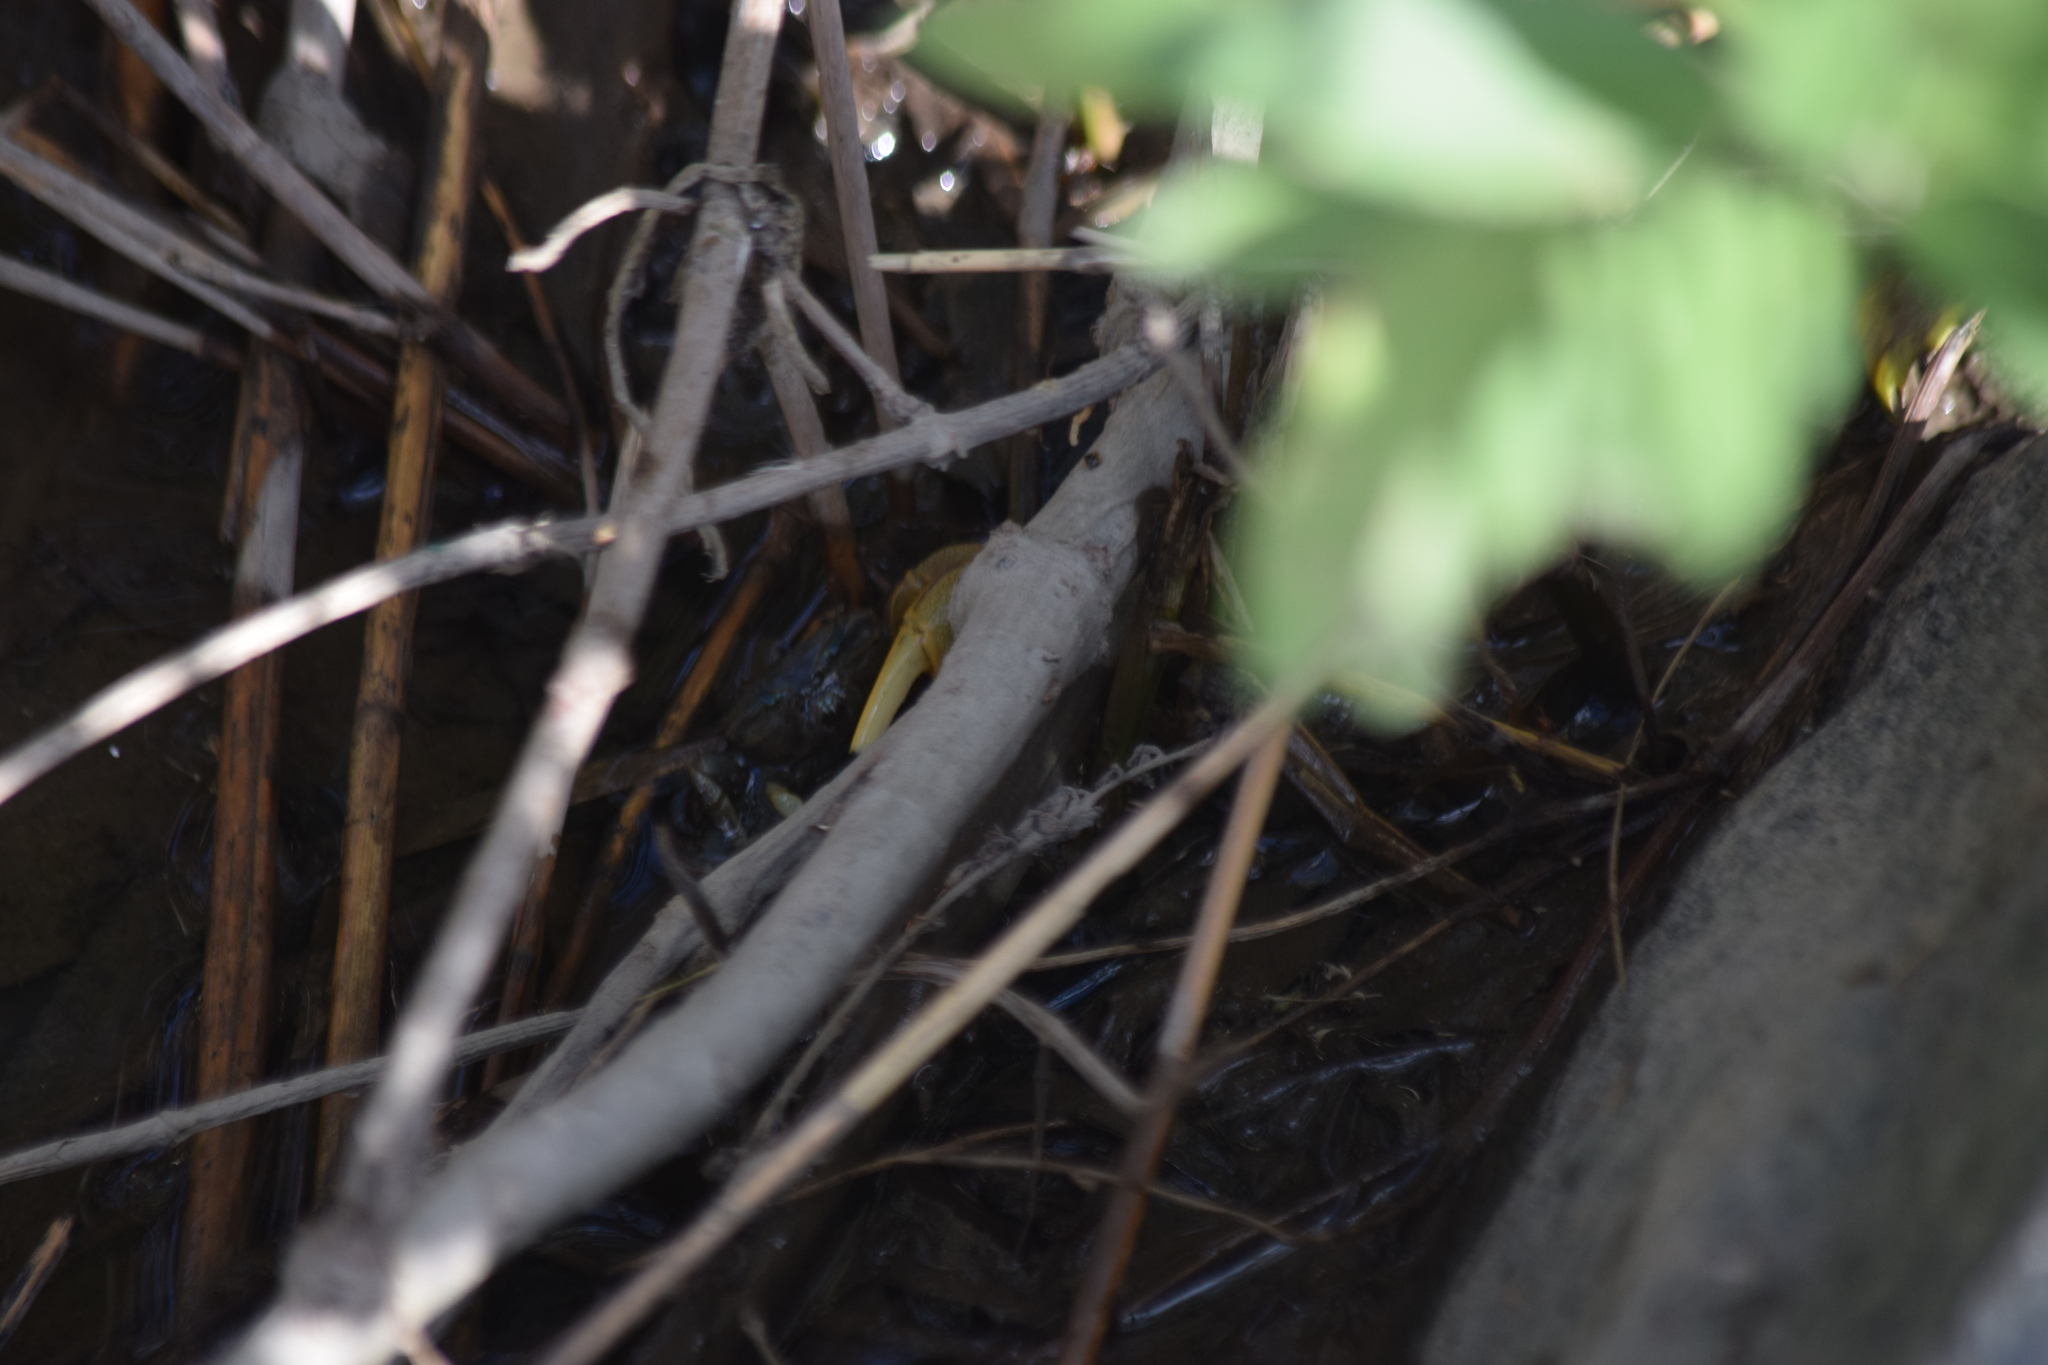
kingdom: Animalia
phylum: Arthropoda
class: Malacostraca
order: Decapoda
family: Ocypodidae
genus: Minuca
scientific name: Minuca pugnax
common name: Mud fiddler crab
